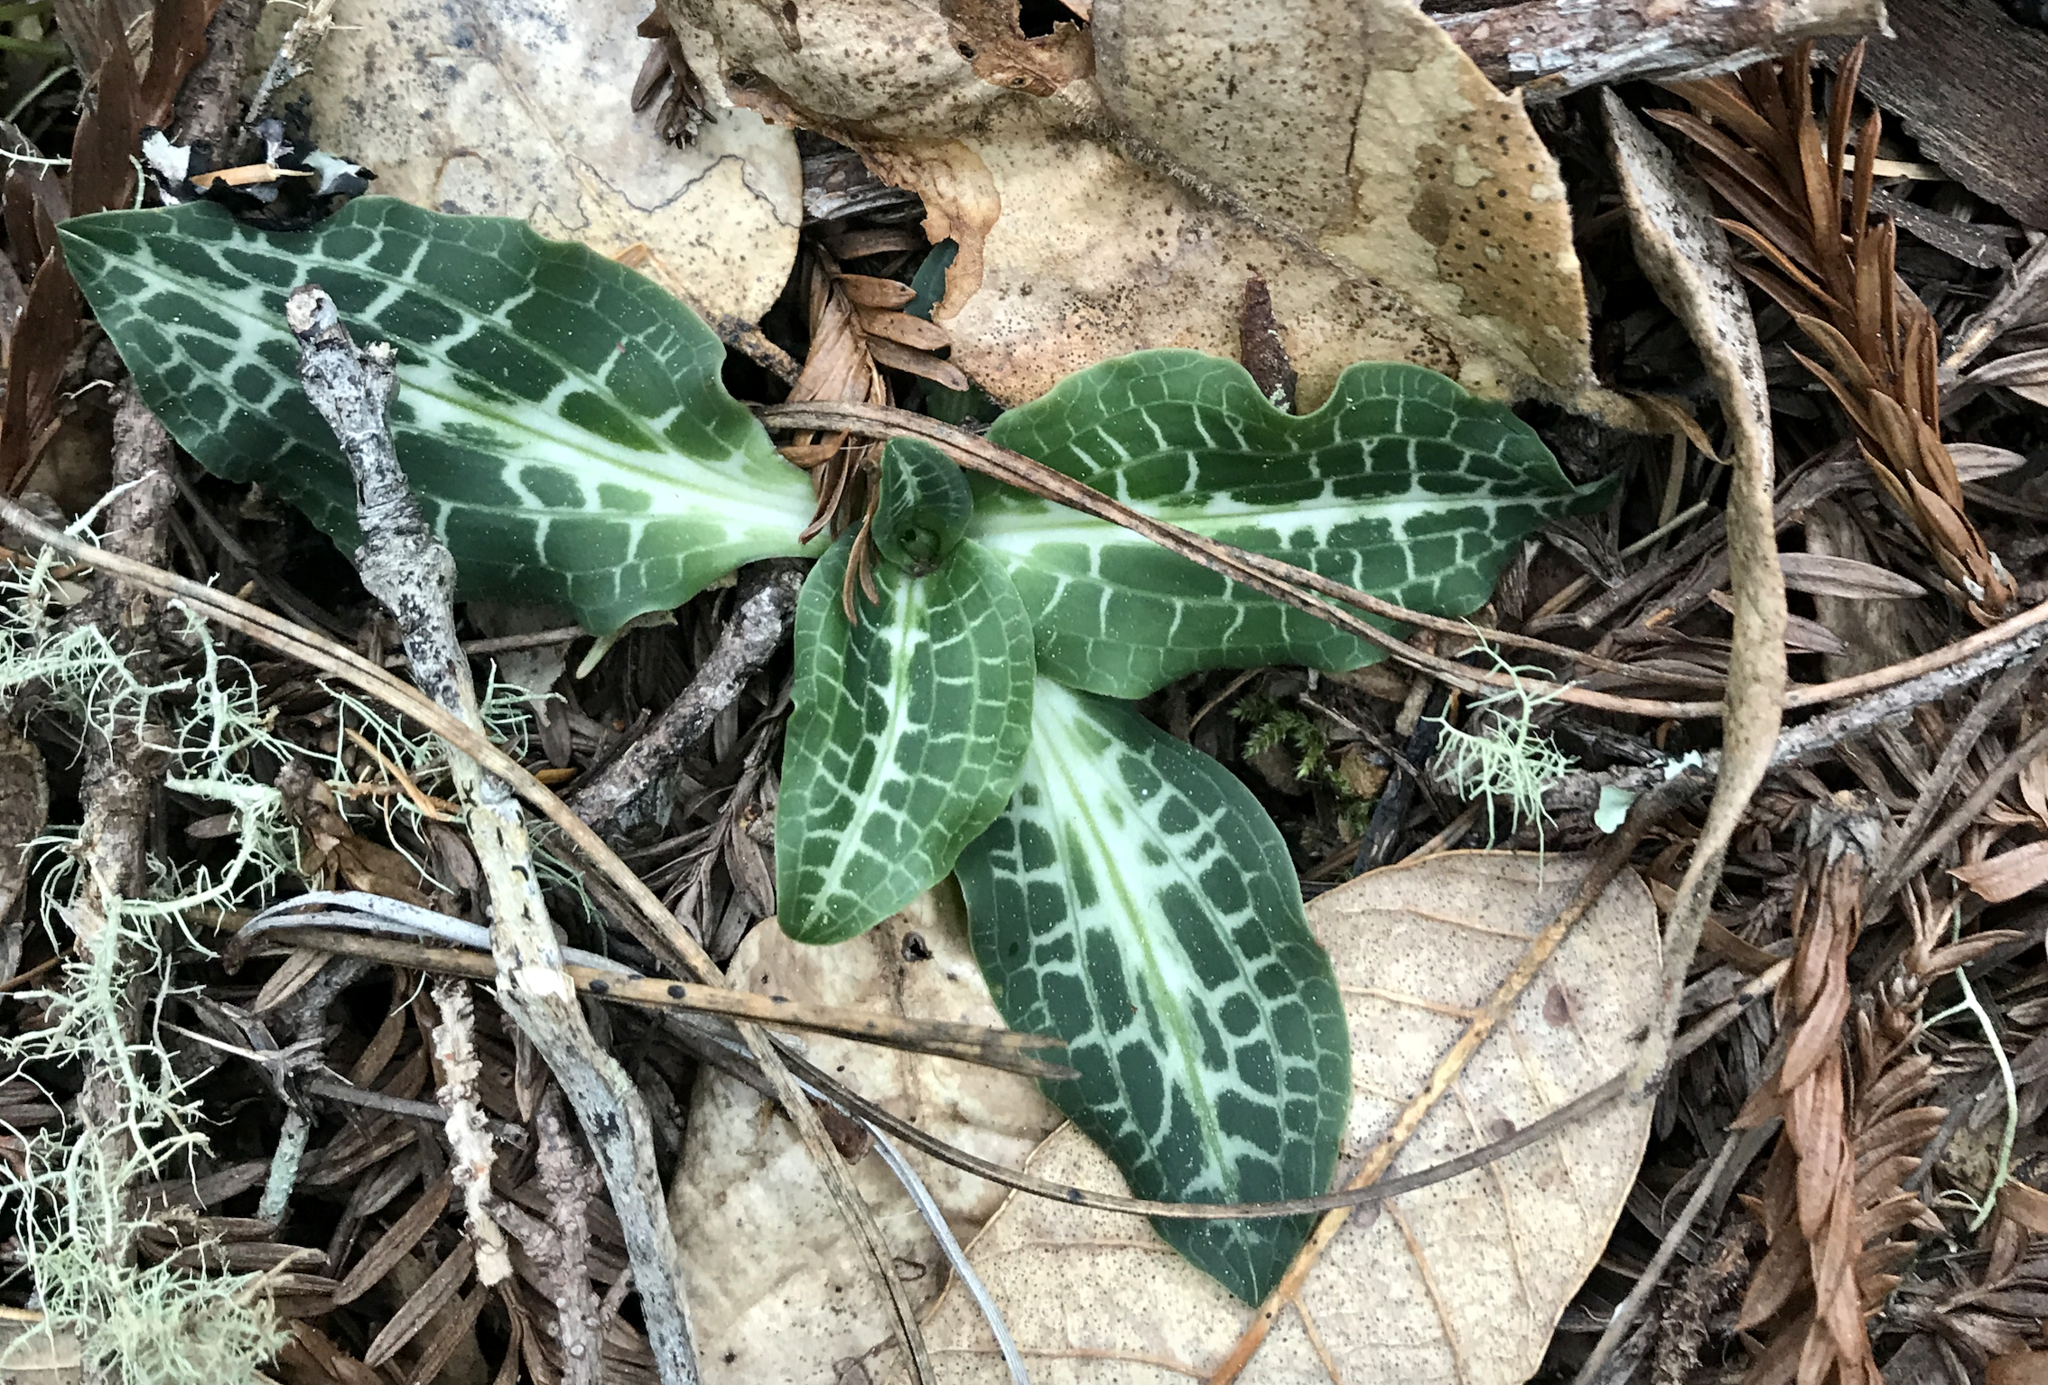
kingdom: Plantae
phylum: Tracheophyta
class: Liliopsida
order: Asparagales
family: Orchidaceae
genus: Goodyera
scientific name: Goodyera oblongifolia
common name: Giant rattlesnake-plantain
